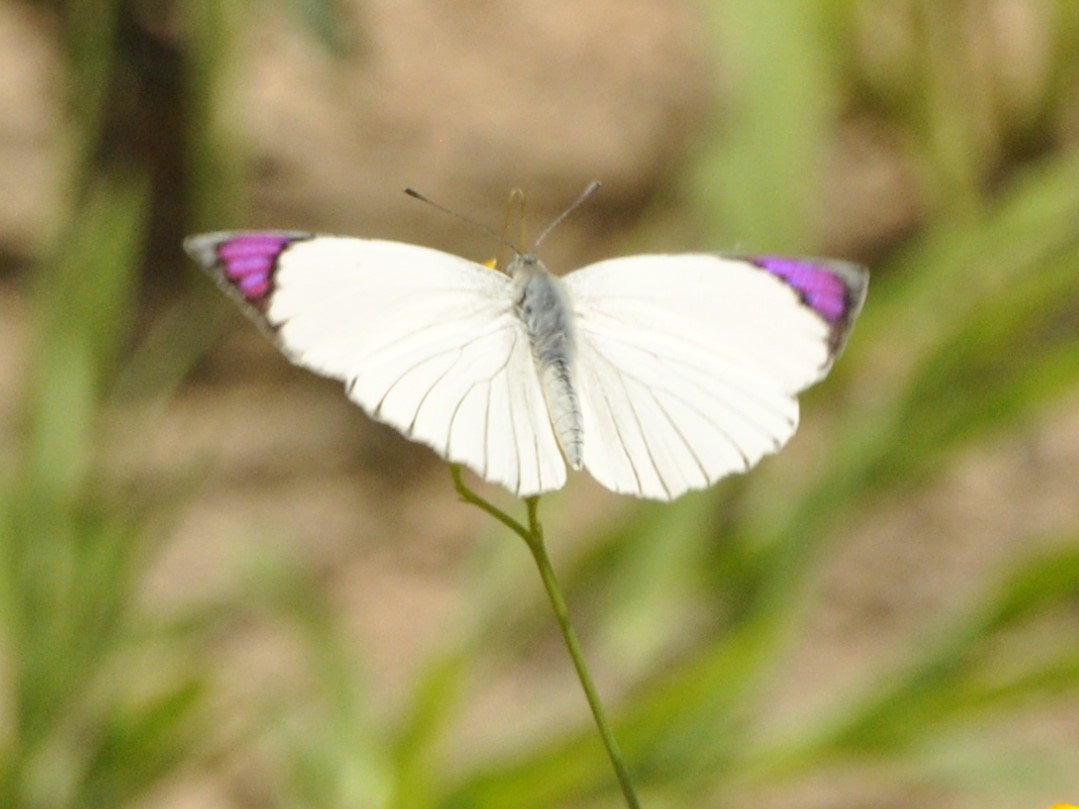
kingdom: Animalia
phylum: Arthropoda
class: Insecta
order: Lepidoptera
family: Pieridae
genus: Colotis
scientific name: Colotis ione
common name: Bushveld purple tip
